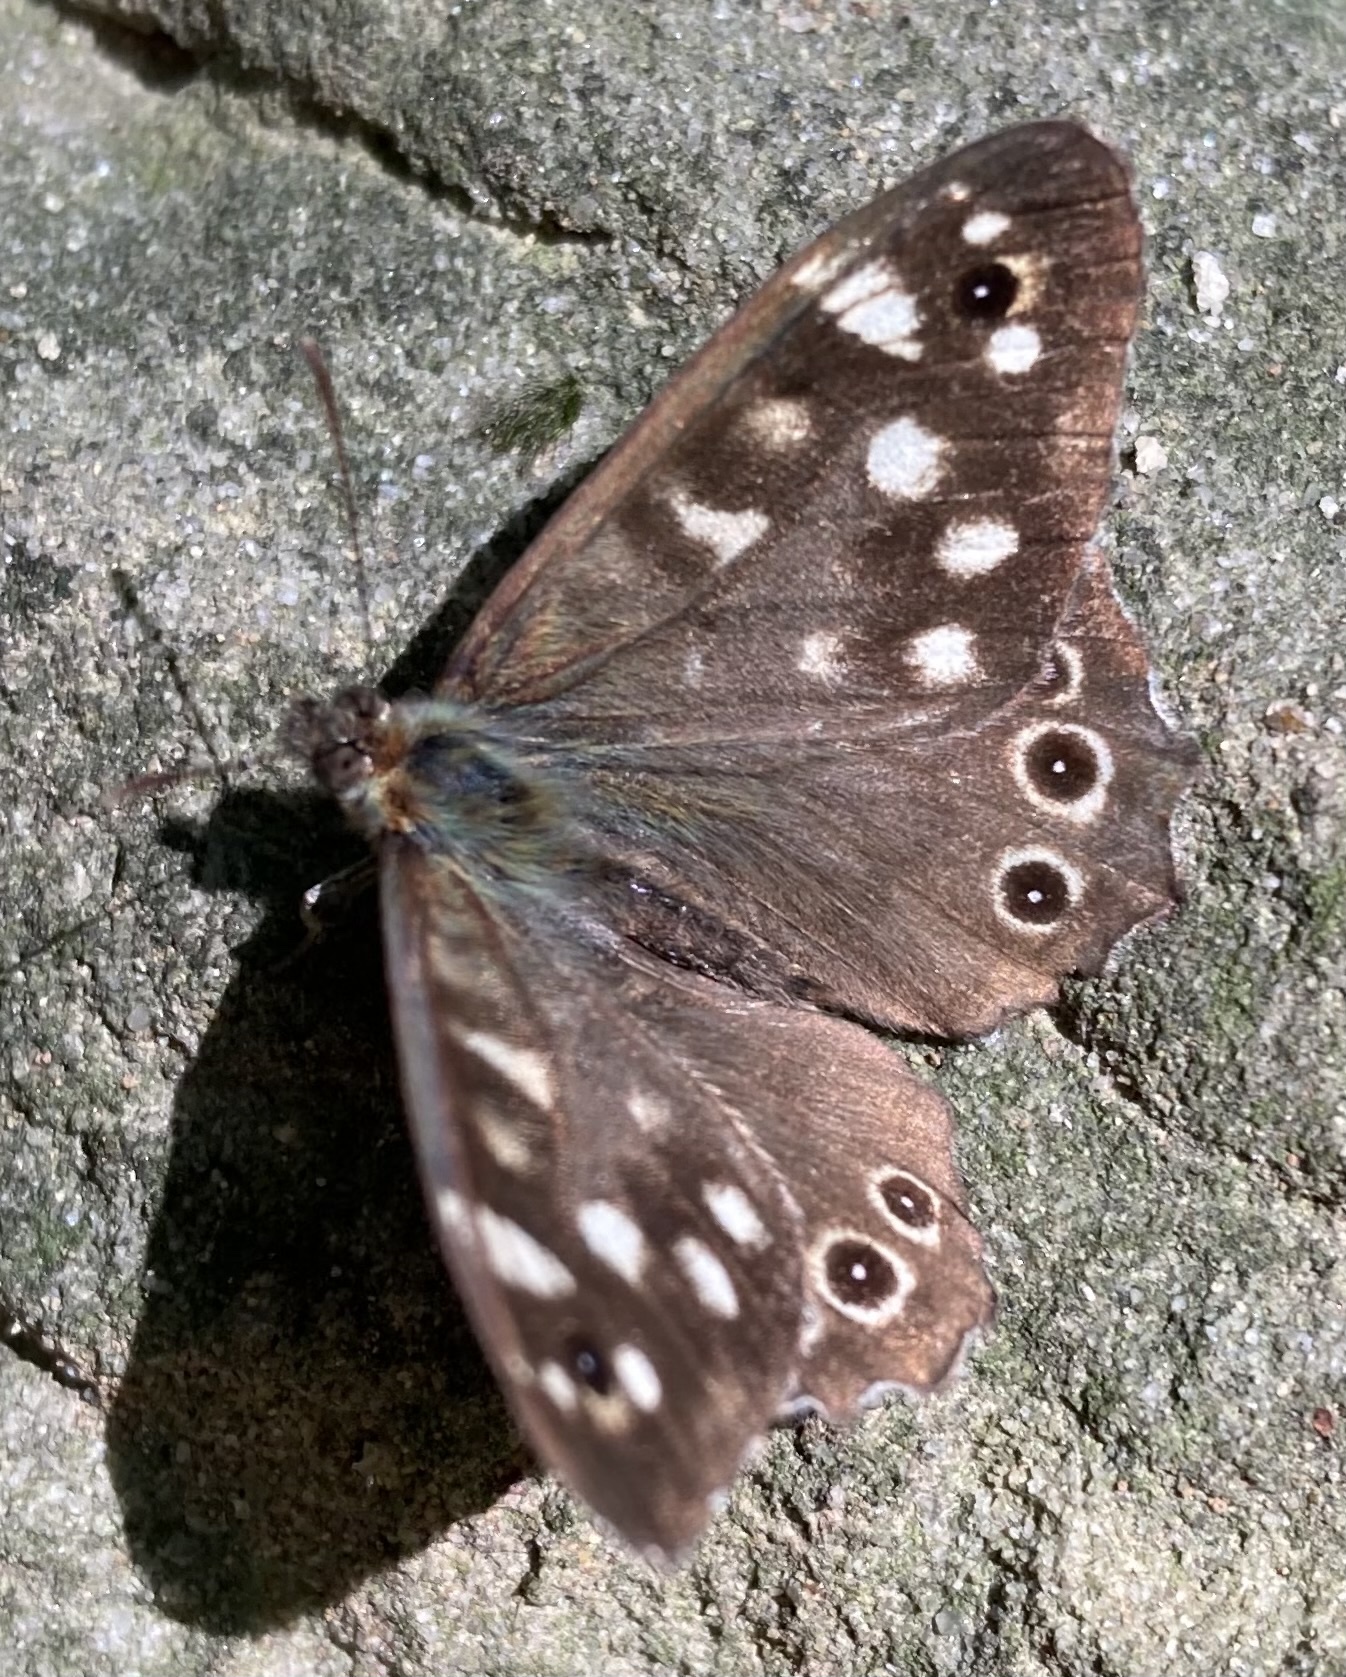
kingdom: Animalia
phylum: Arthropoda
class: Insecta
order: Lepidoptera
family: Nymphalidae
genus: Pararge
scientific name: Pararge aegeria
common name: Speckled wood
